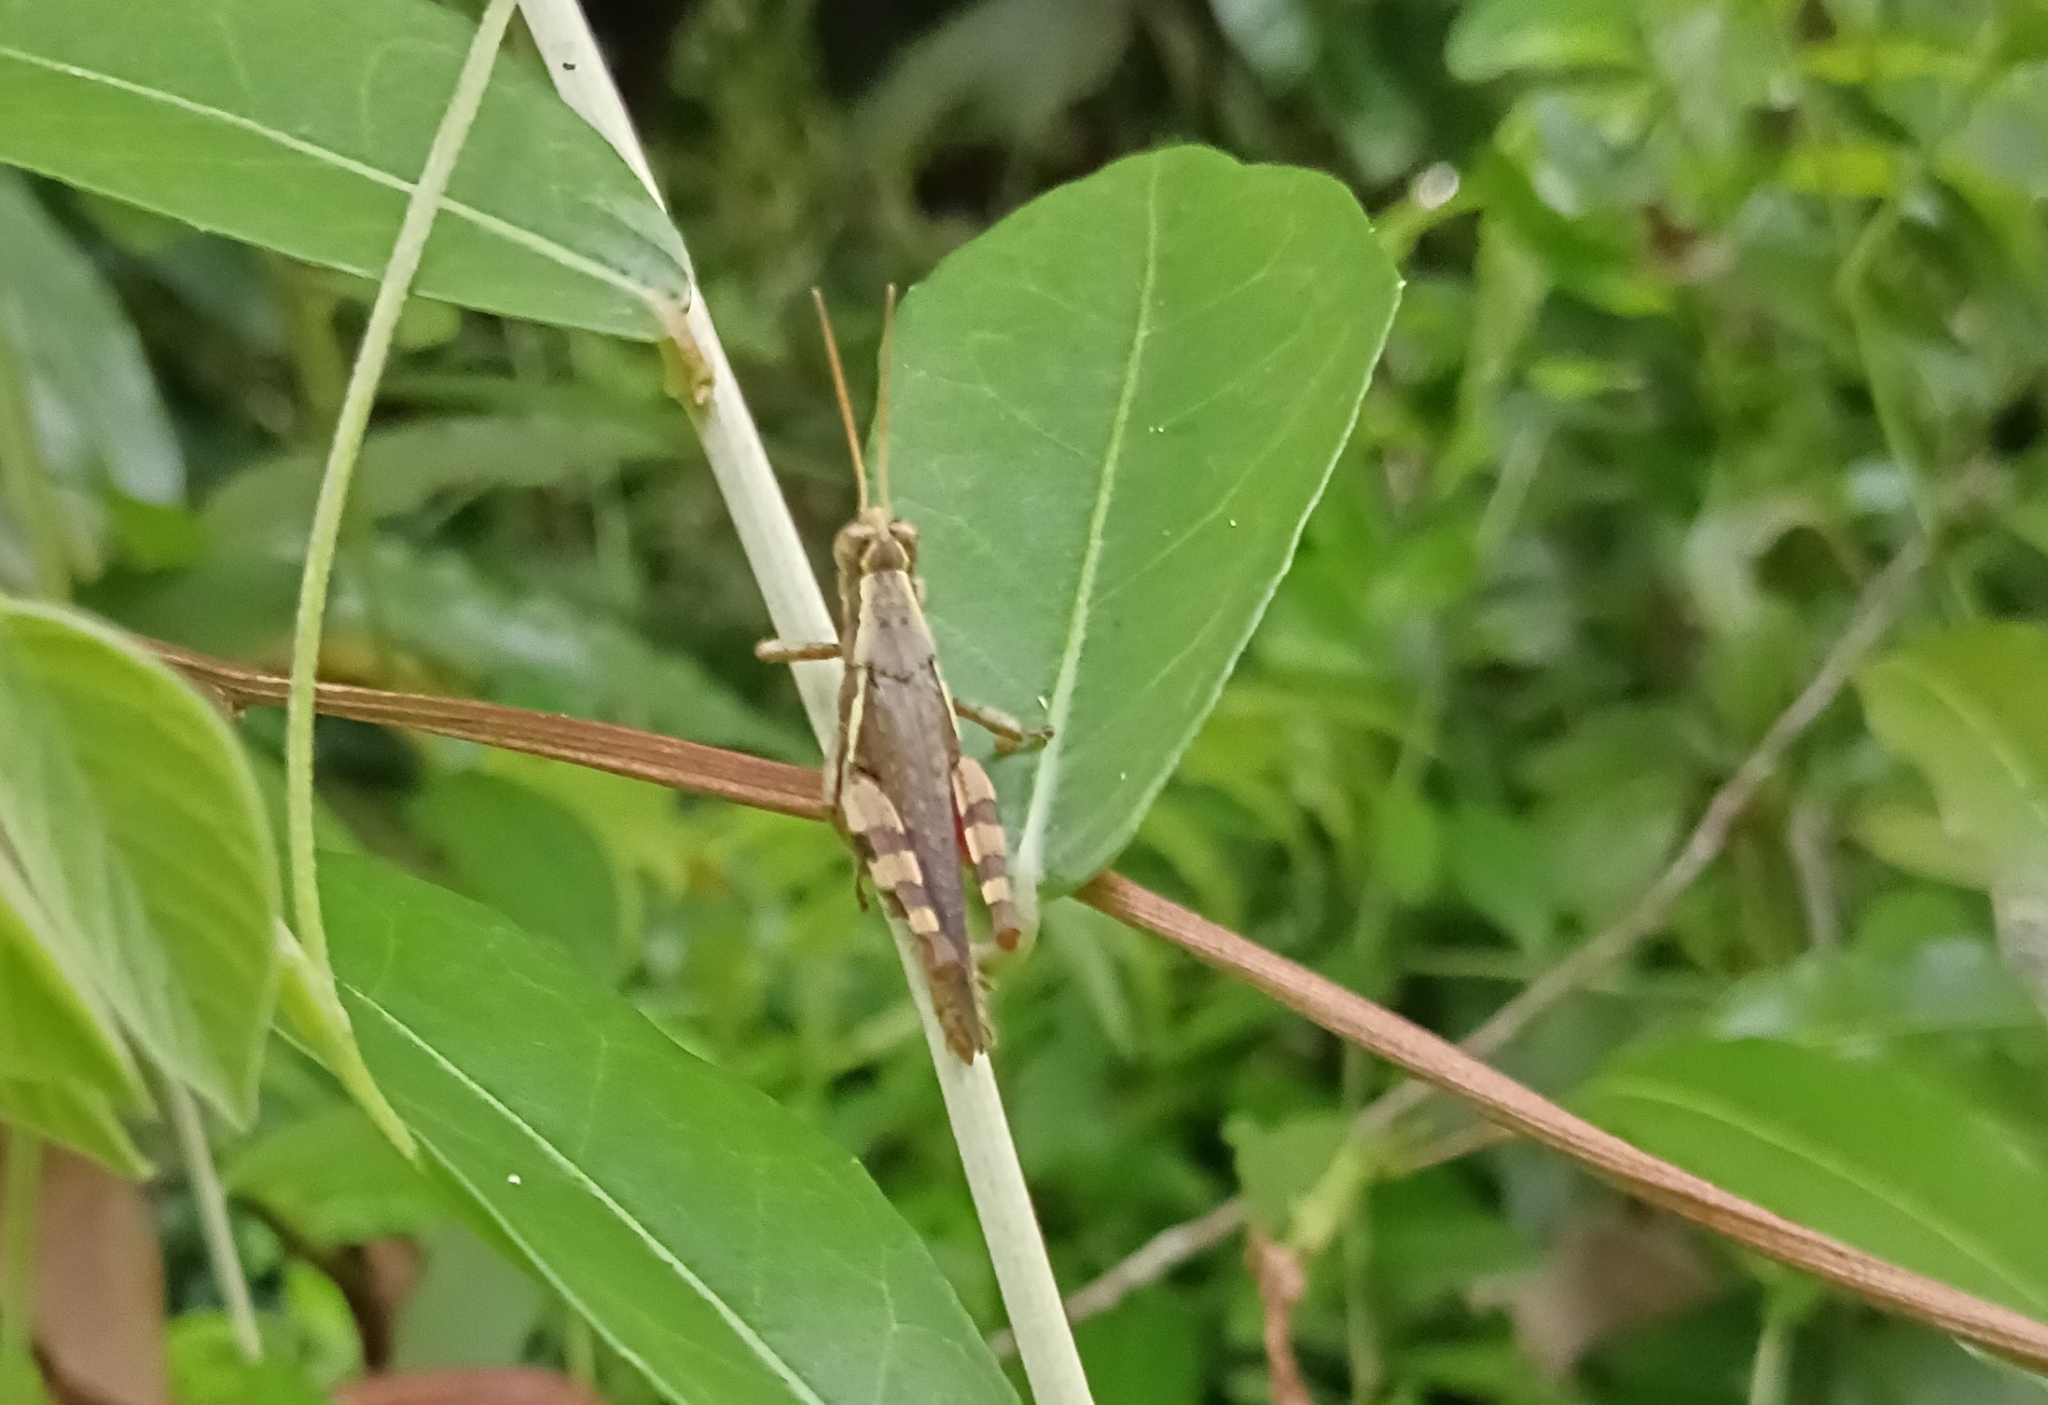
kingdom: Animalia
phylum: Arthropoda
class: Insecta
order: Orthoptera
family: Acrididae
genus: Xenocatantops
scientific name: Xenocatantops humile
